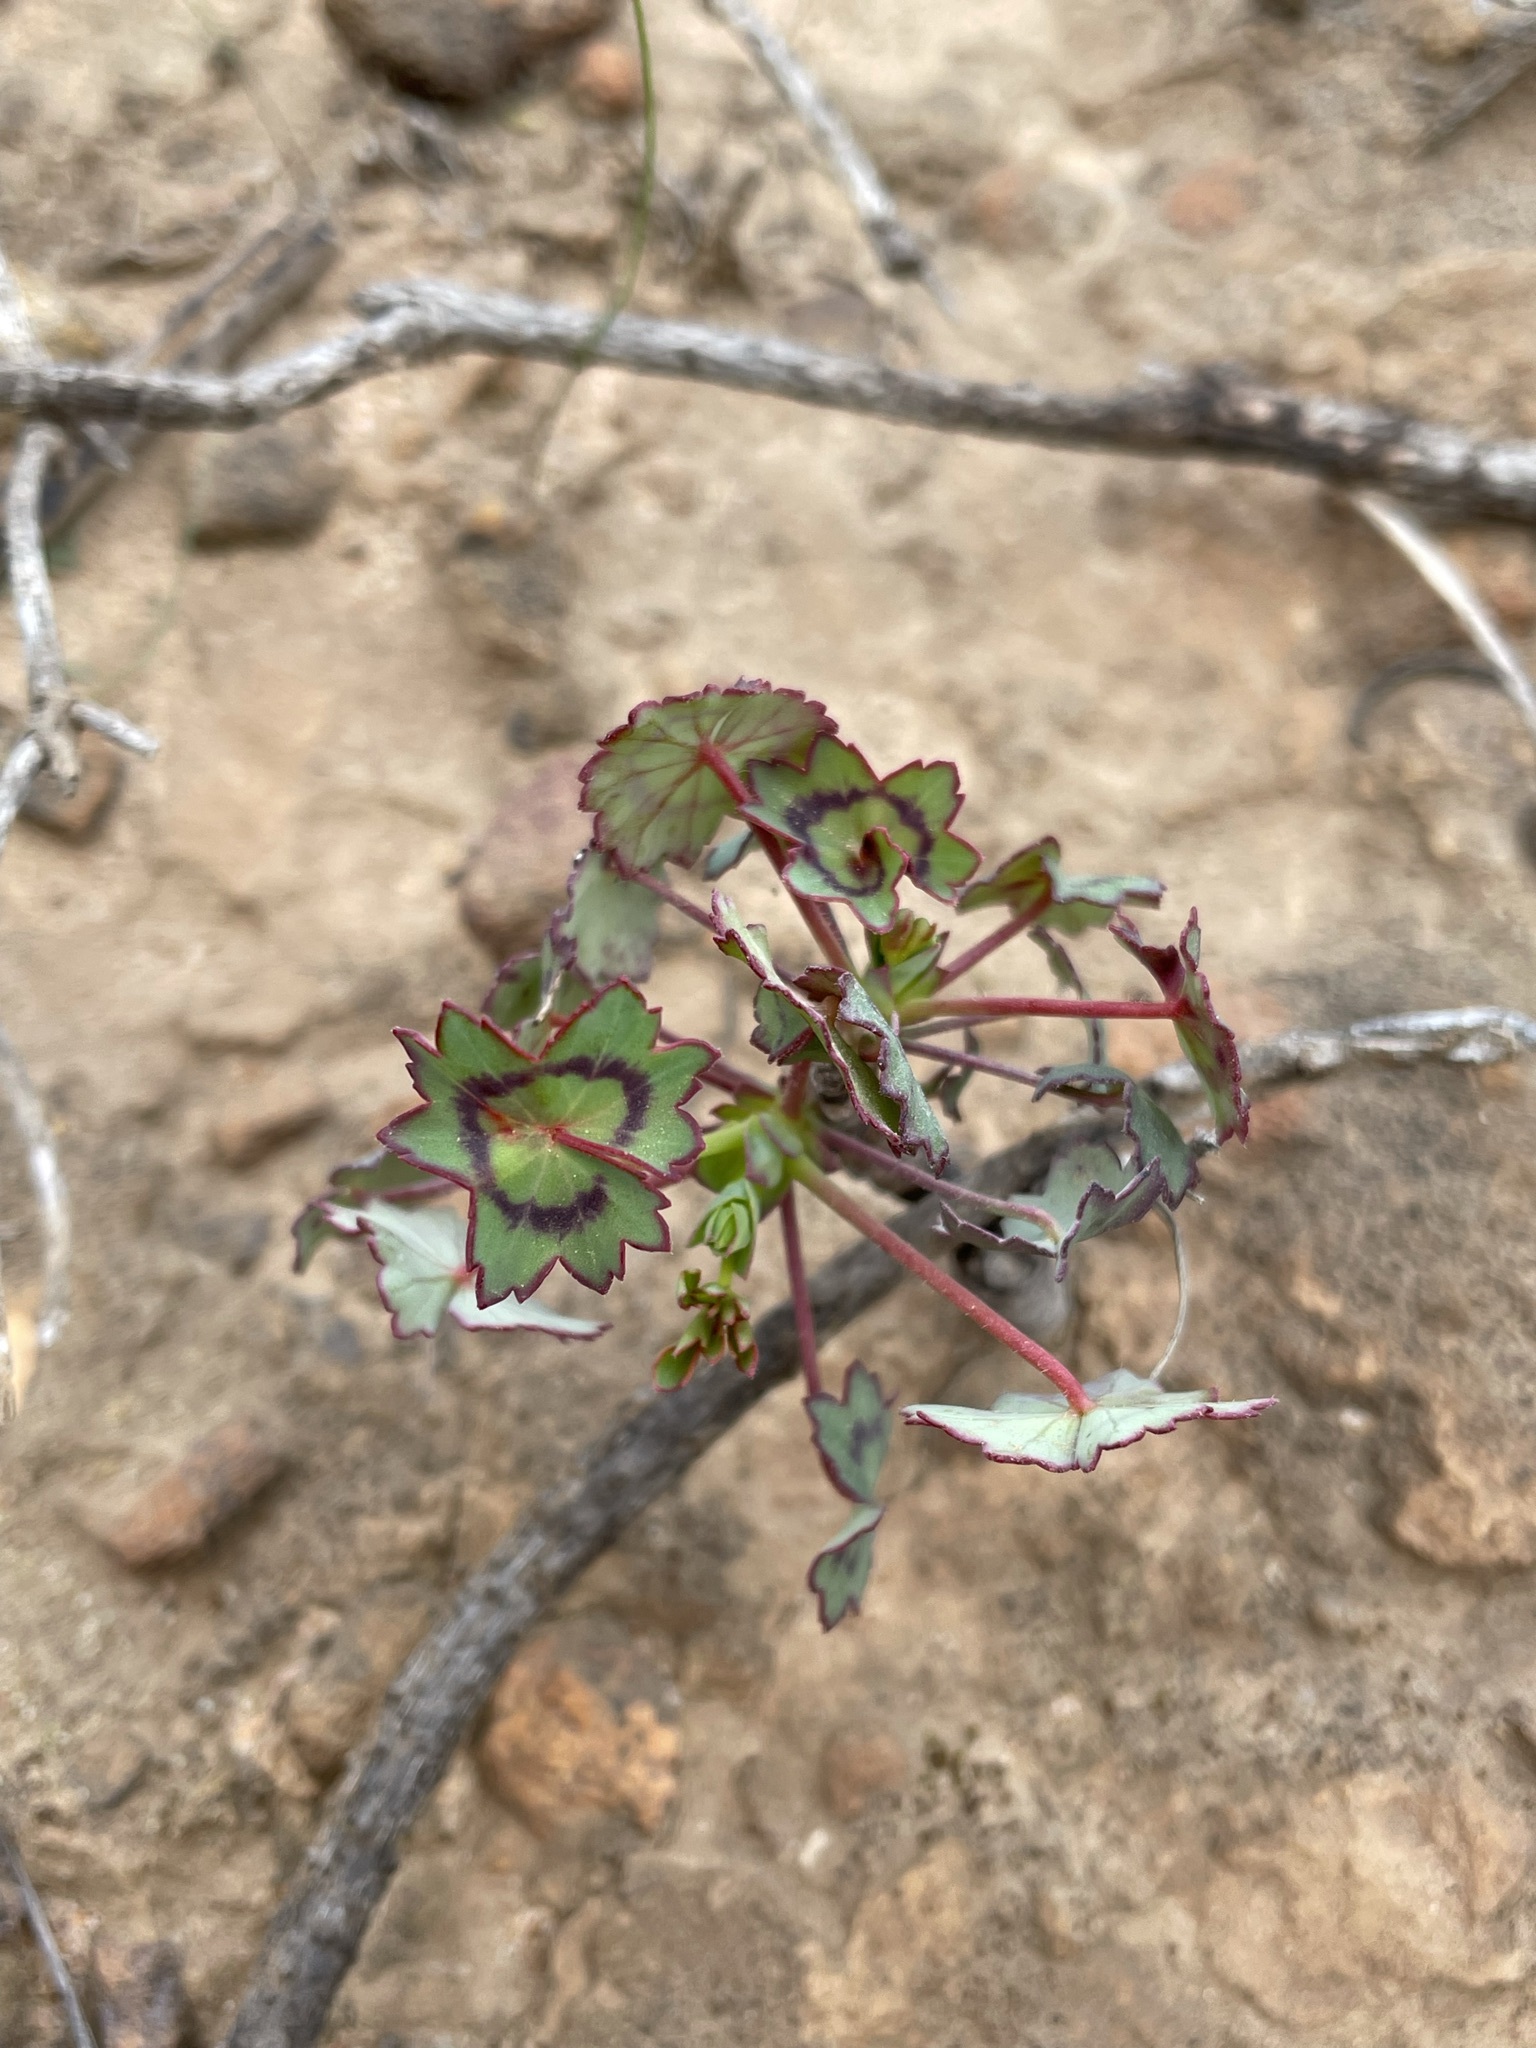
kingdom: Plantae
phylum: Tracheophyta
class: Magnoliopsida
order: Geraniales
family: Geraniaceae
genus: Pelargonium
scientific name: Pelargonium tabulare
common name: Table mountain pelargonium
